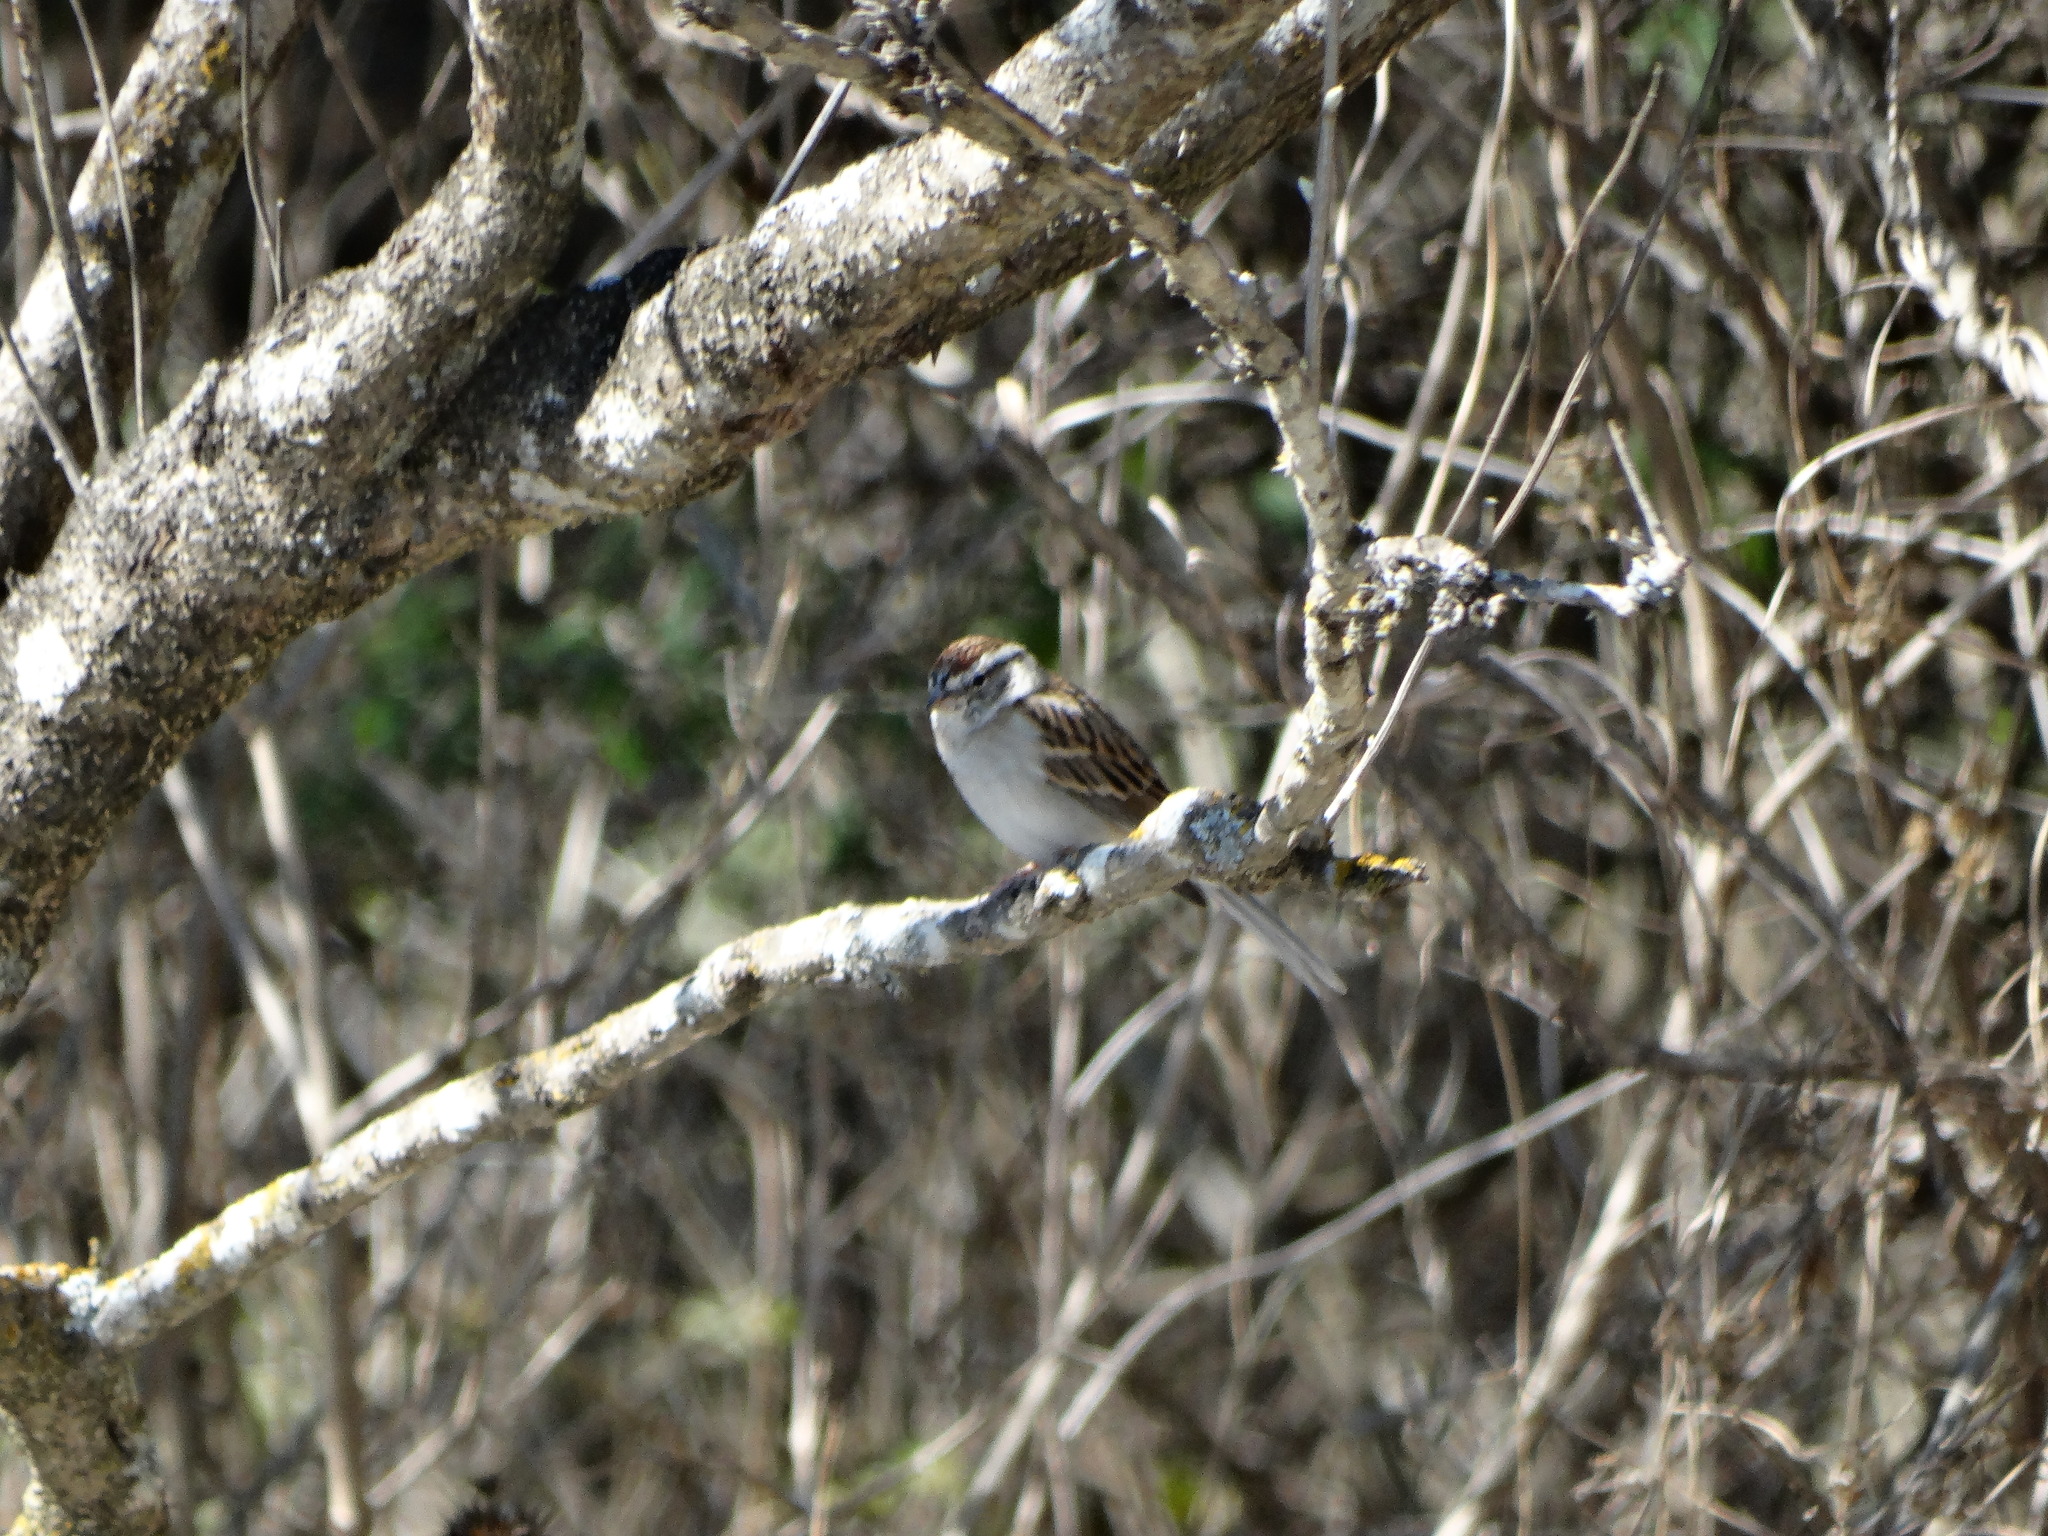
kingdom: Animalia
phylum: Chordata
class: Aves
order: Passeriformes
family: Passerellidae
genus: Spizella
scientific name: Spizella passerina
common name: Chipping sparrow
